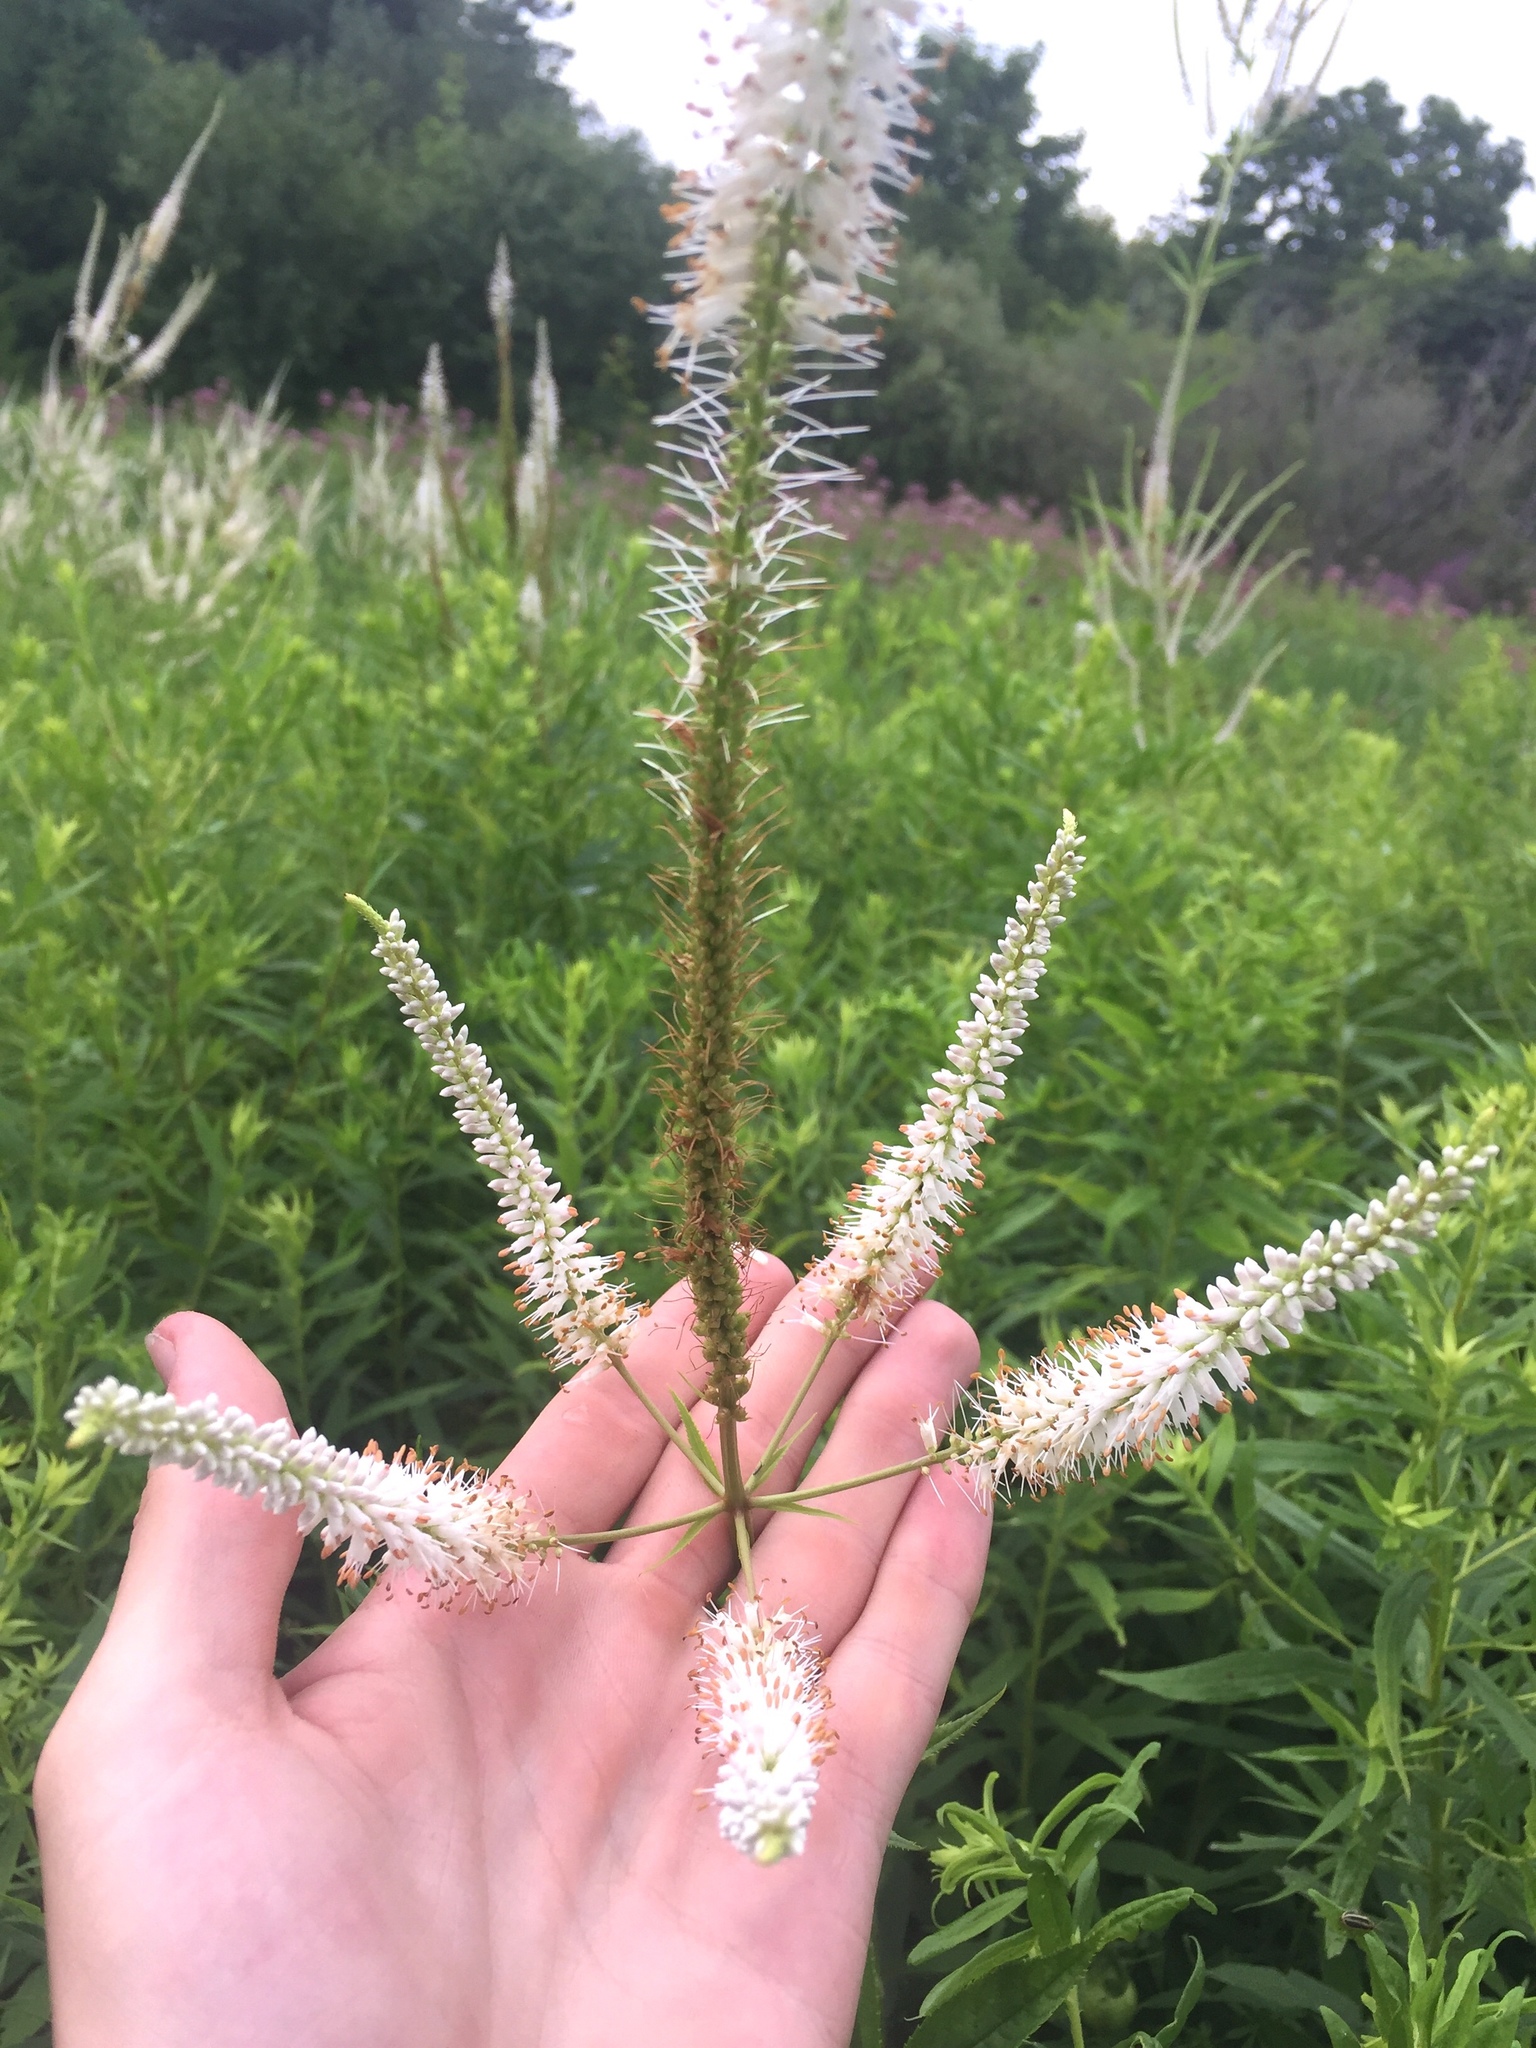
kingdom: Plantae
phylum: Tracheophyta
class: Magnoliopsida
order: Lamiales
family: Plantaginaceae
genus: Veronicastrum
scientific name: Veronicastrum virginicum
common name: Blackroot
